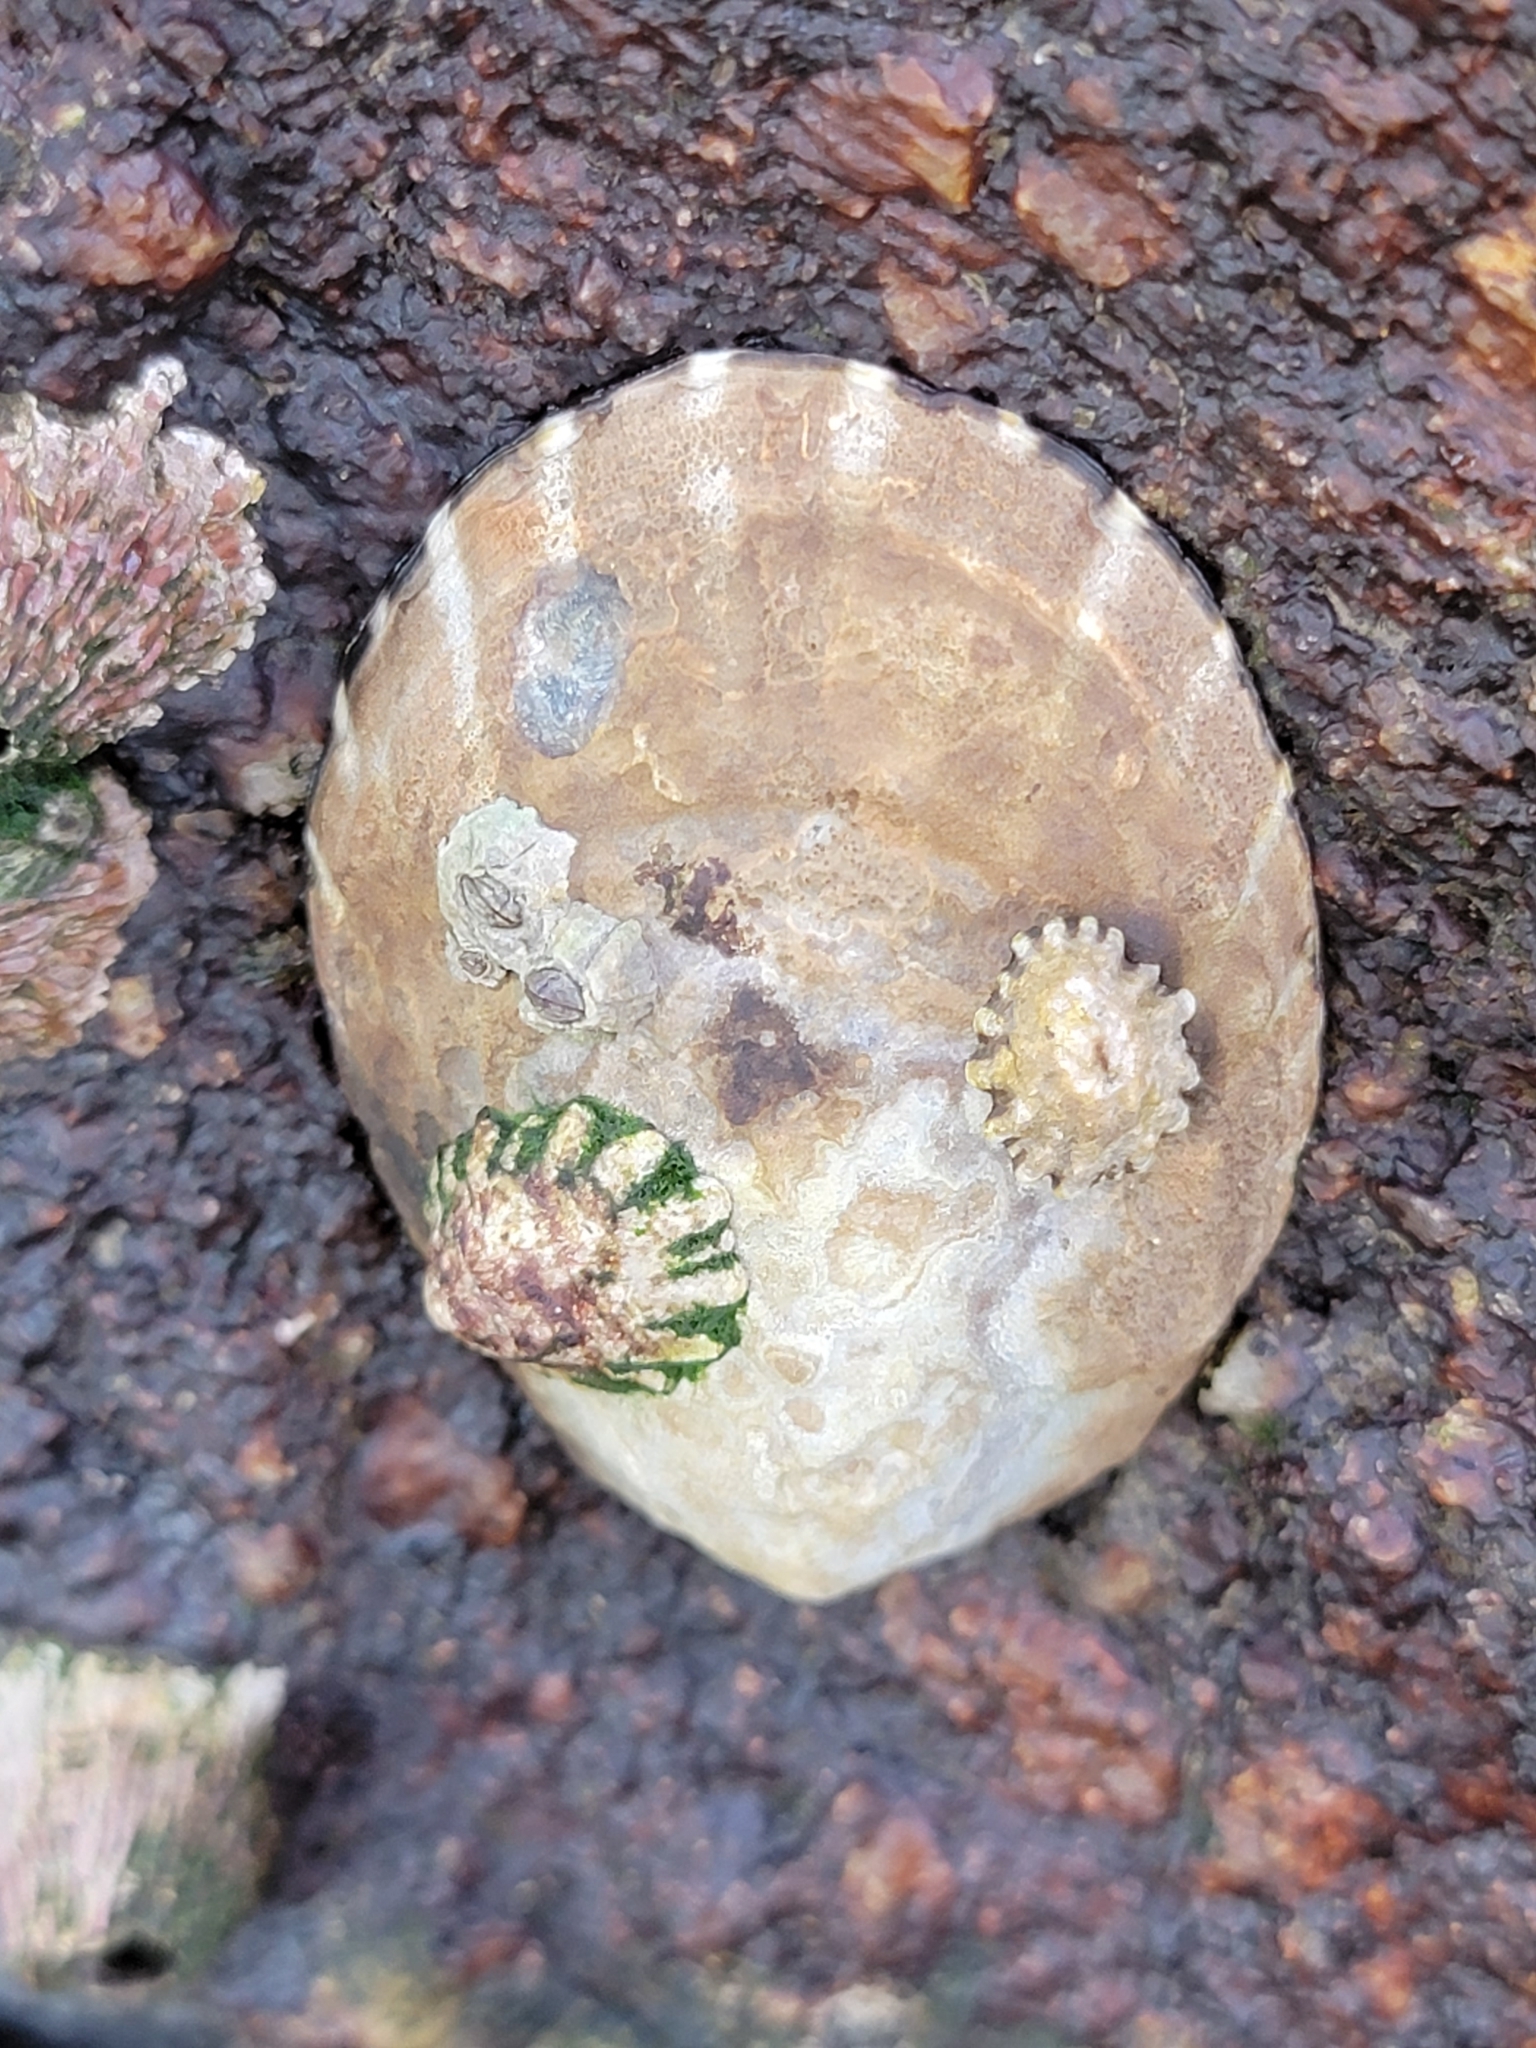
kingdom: Animalia
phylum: Mollusca
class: Gastropoda
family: Lottiidae
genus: Lottia
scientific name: Lottia gigantea
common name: Owl limpet
